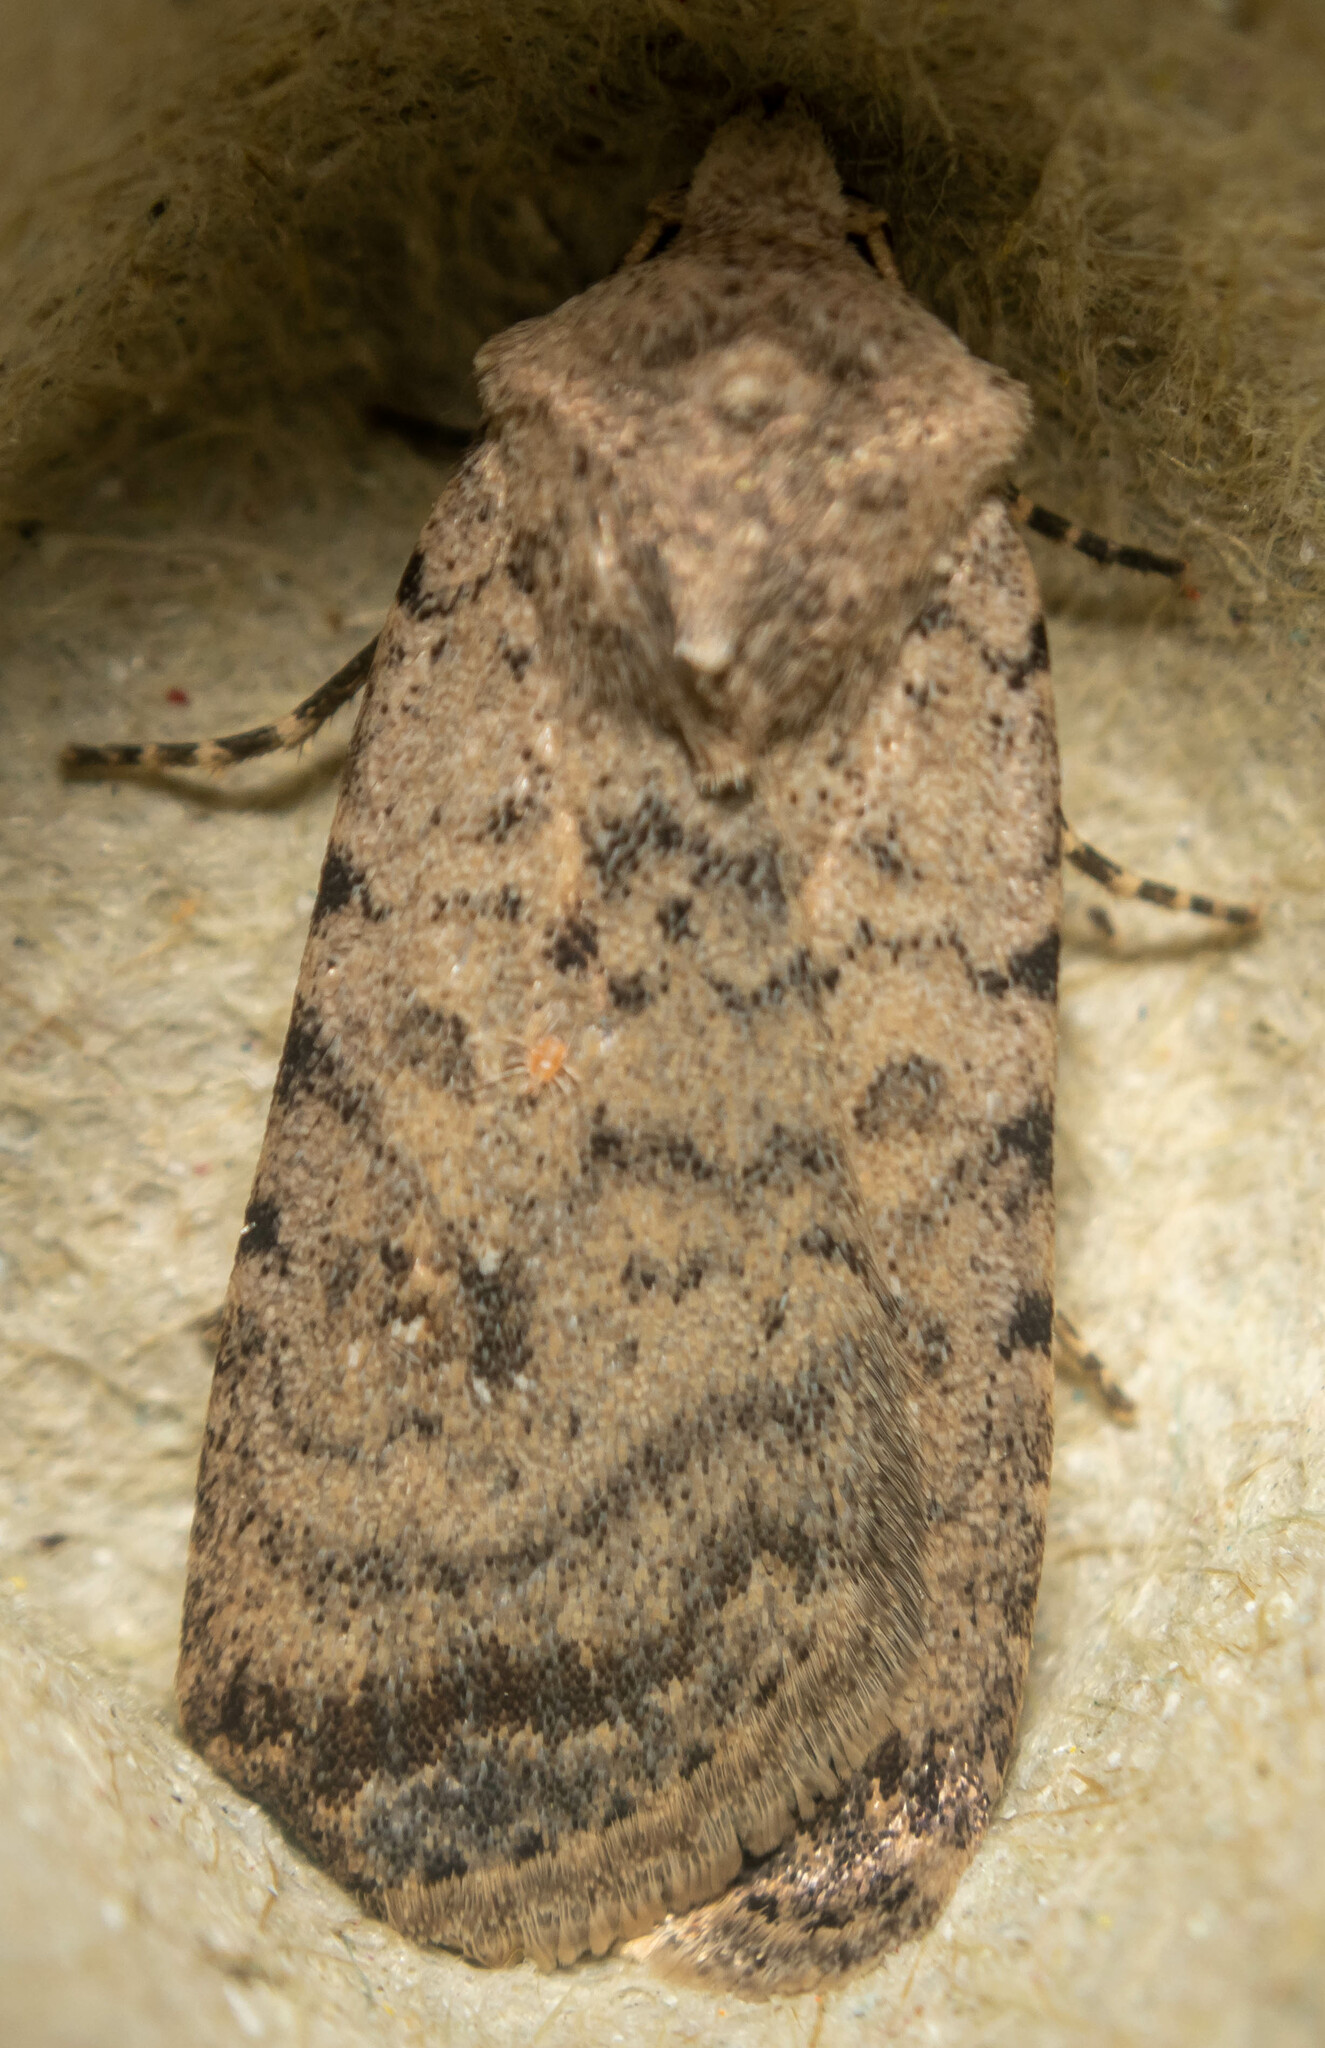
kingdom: Animalia
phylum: Arthropoda
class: Insecta
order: Lepidoptera
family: Noctuidae
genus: Caradrina
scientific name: Caradrina clavipalpis
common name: Pale mottled willow
